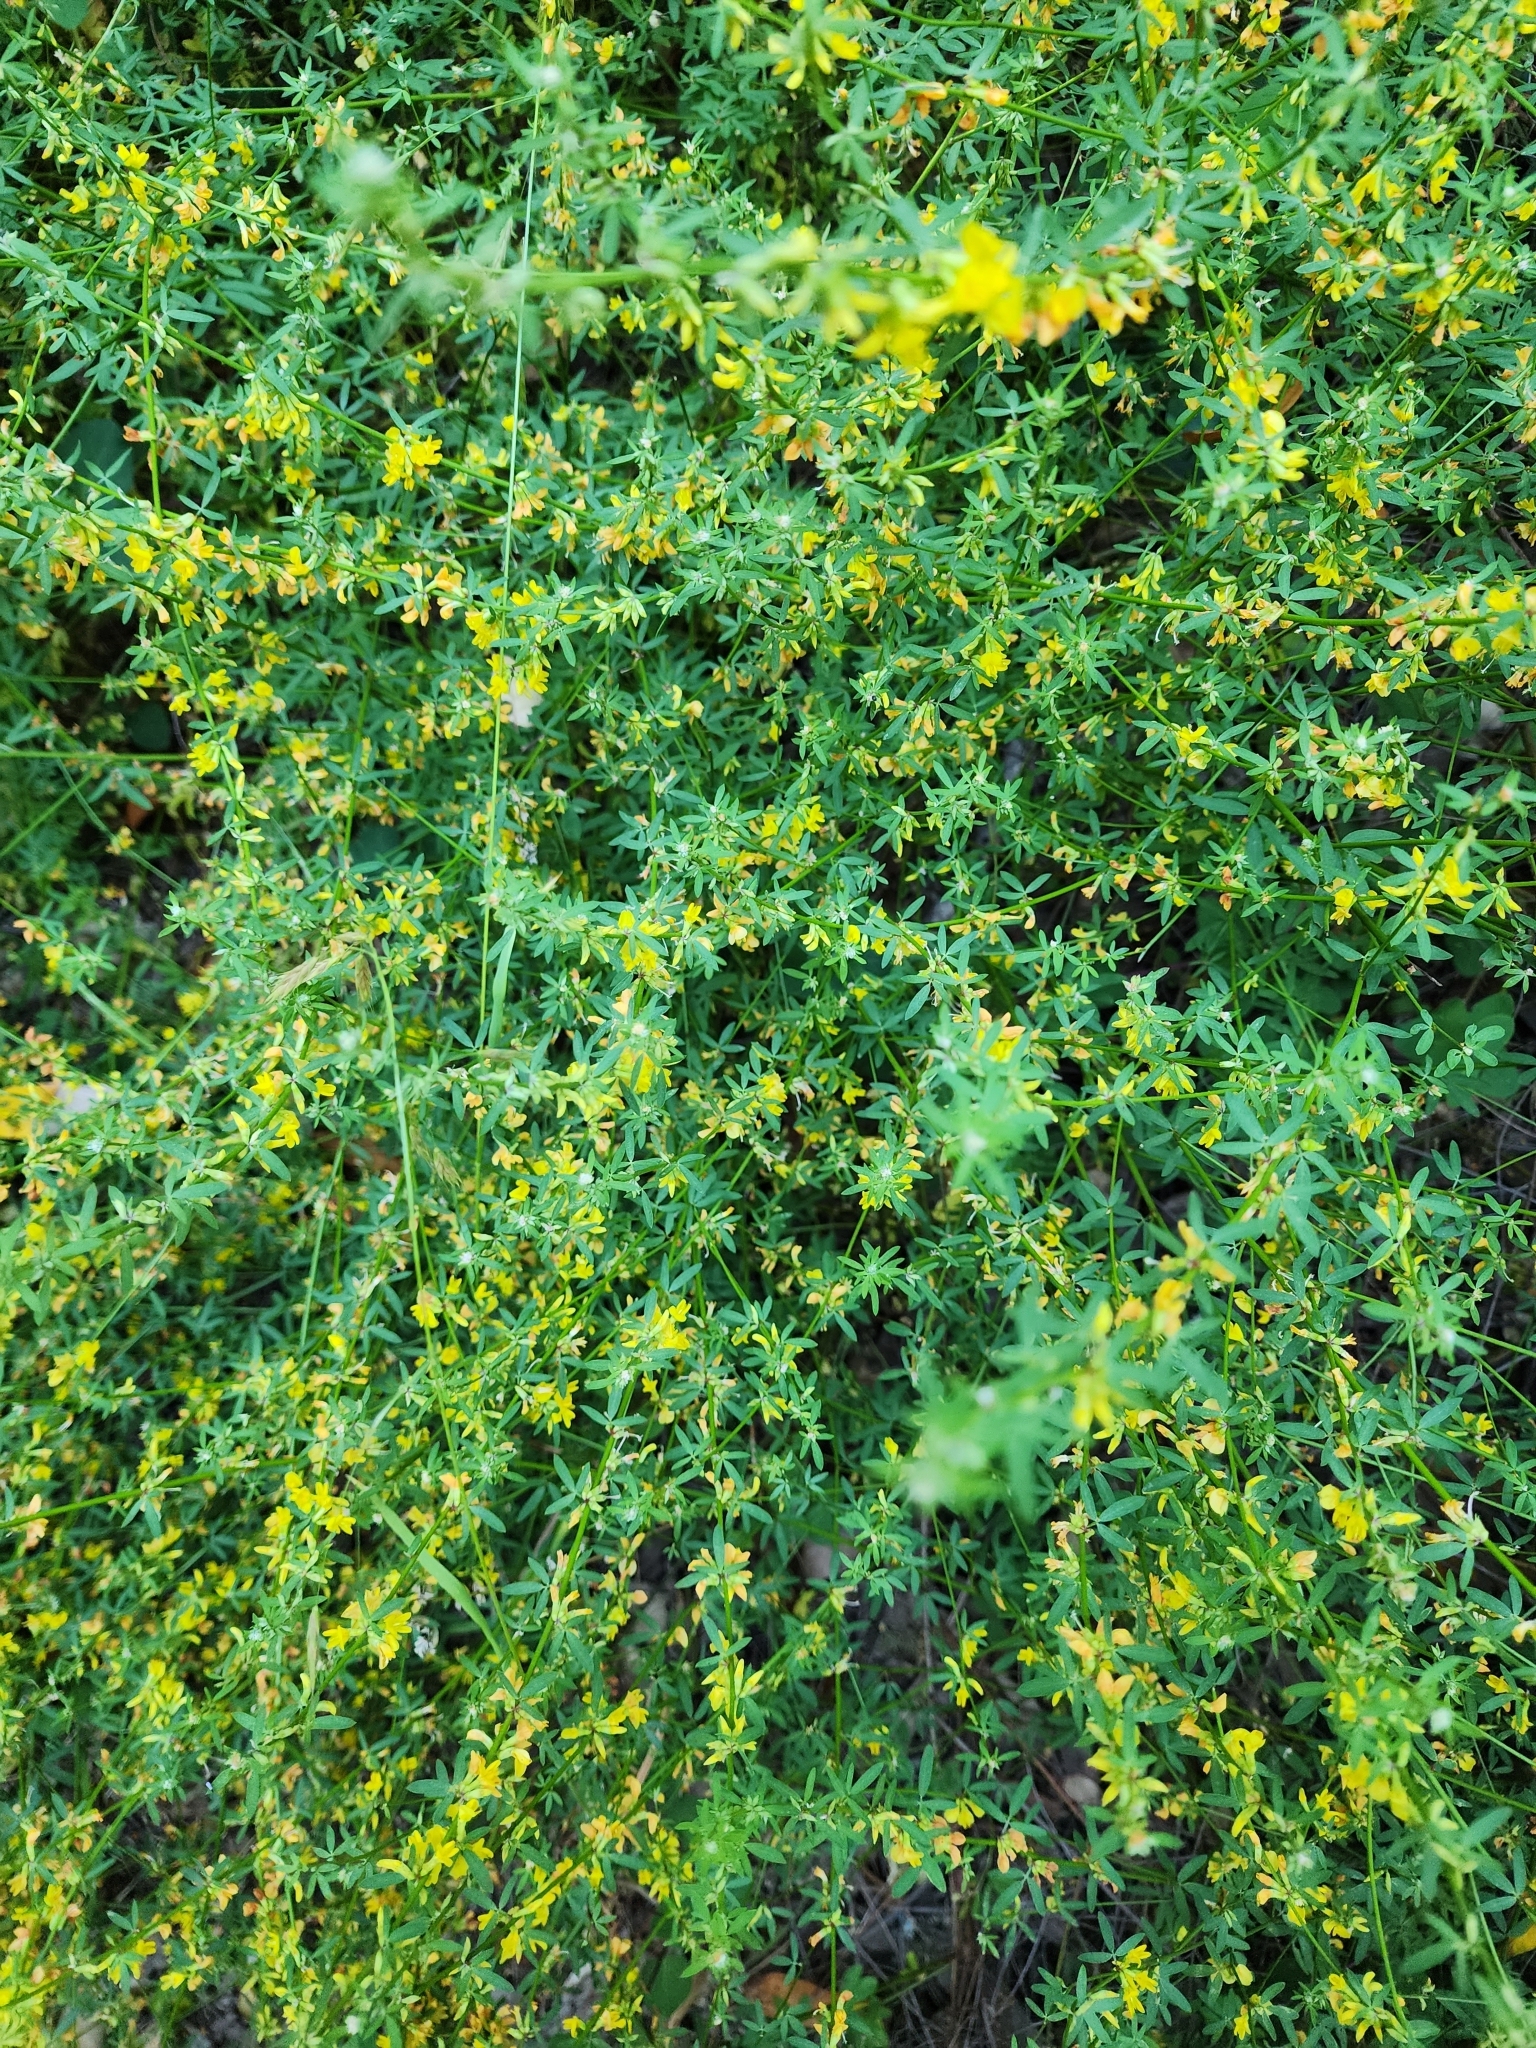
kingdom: Plantae
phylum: Tracheophyta
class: Magnoliopsida
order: Fabales
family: Fabaceae
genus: Acmispon
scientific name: Acmispon glaber
